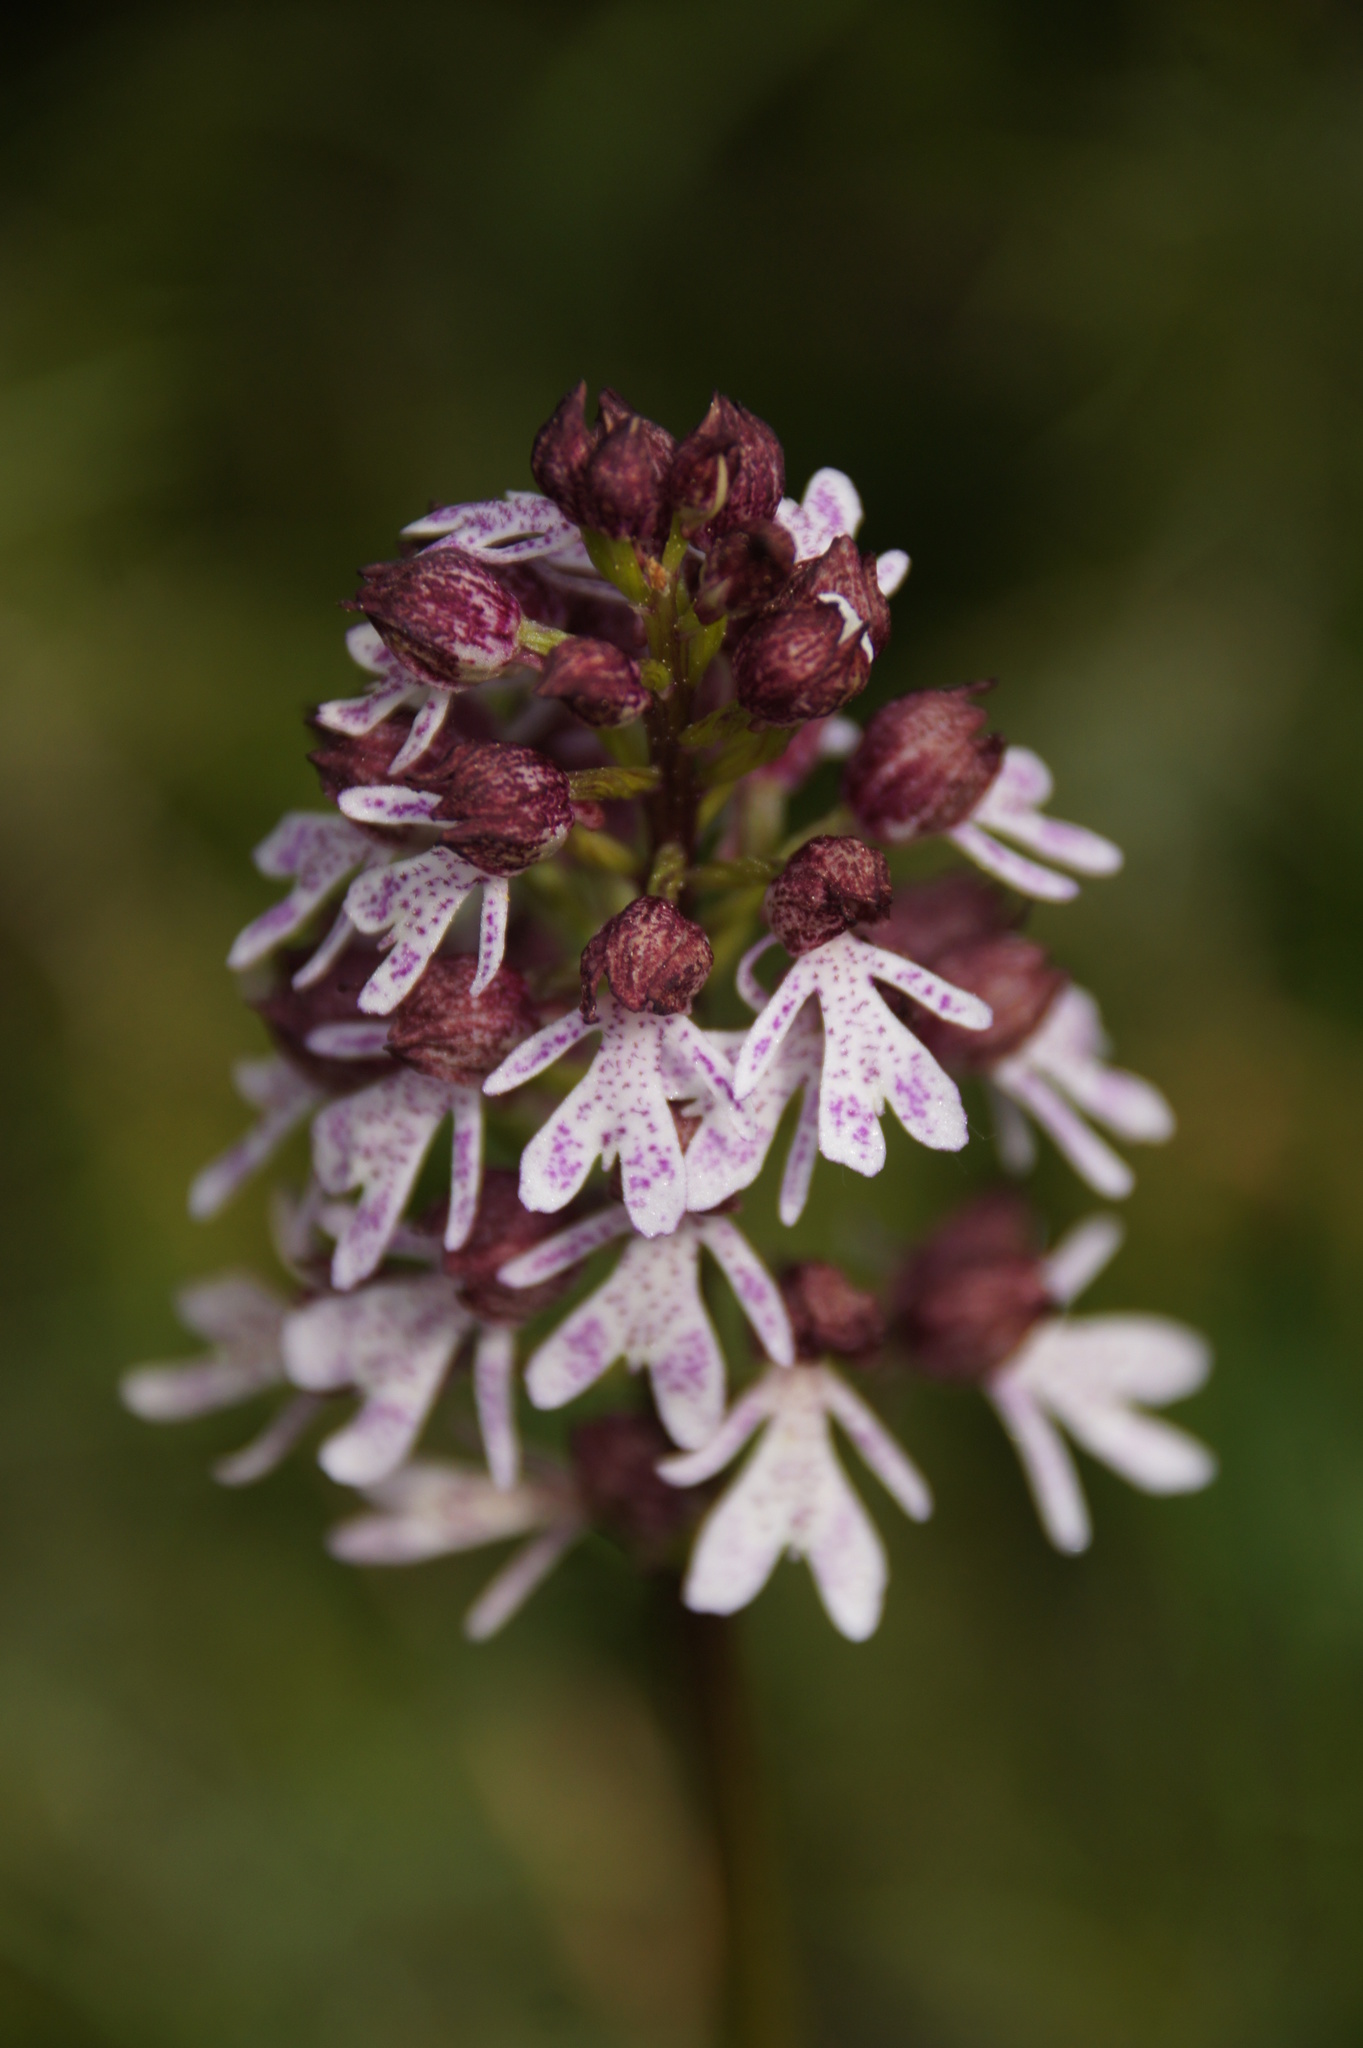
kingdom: Plantae
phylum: Tracheophyta
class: Liliopsida
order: Asparagales
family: Orchidaceae
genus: Orchis
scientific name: Orchis purpurea
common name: Lady orchid
